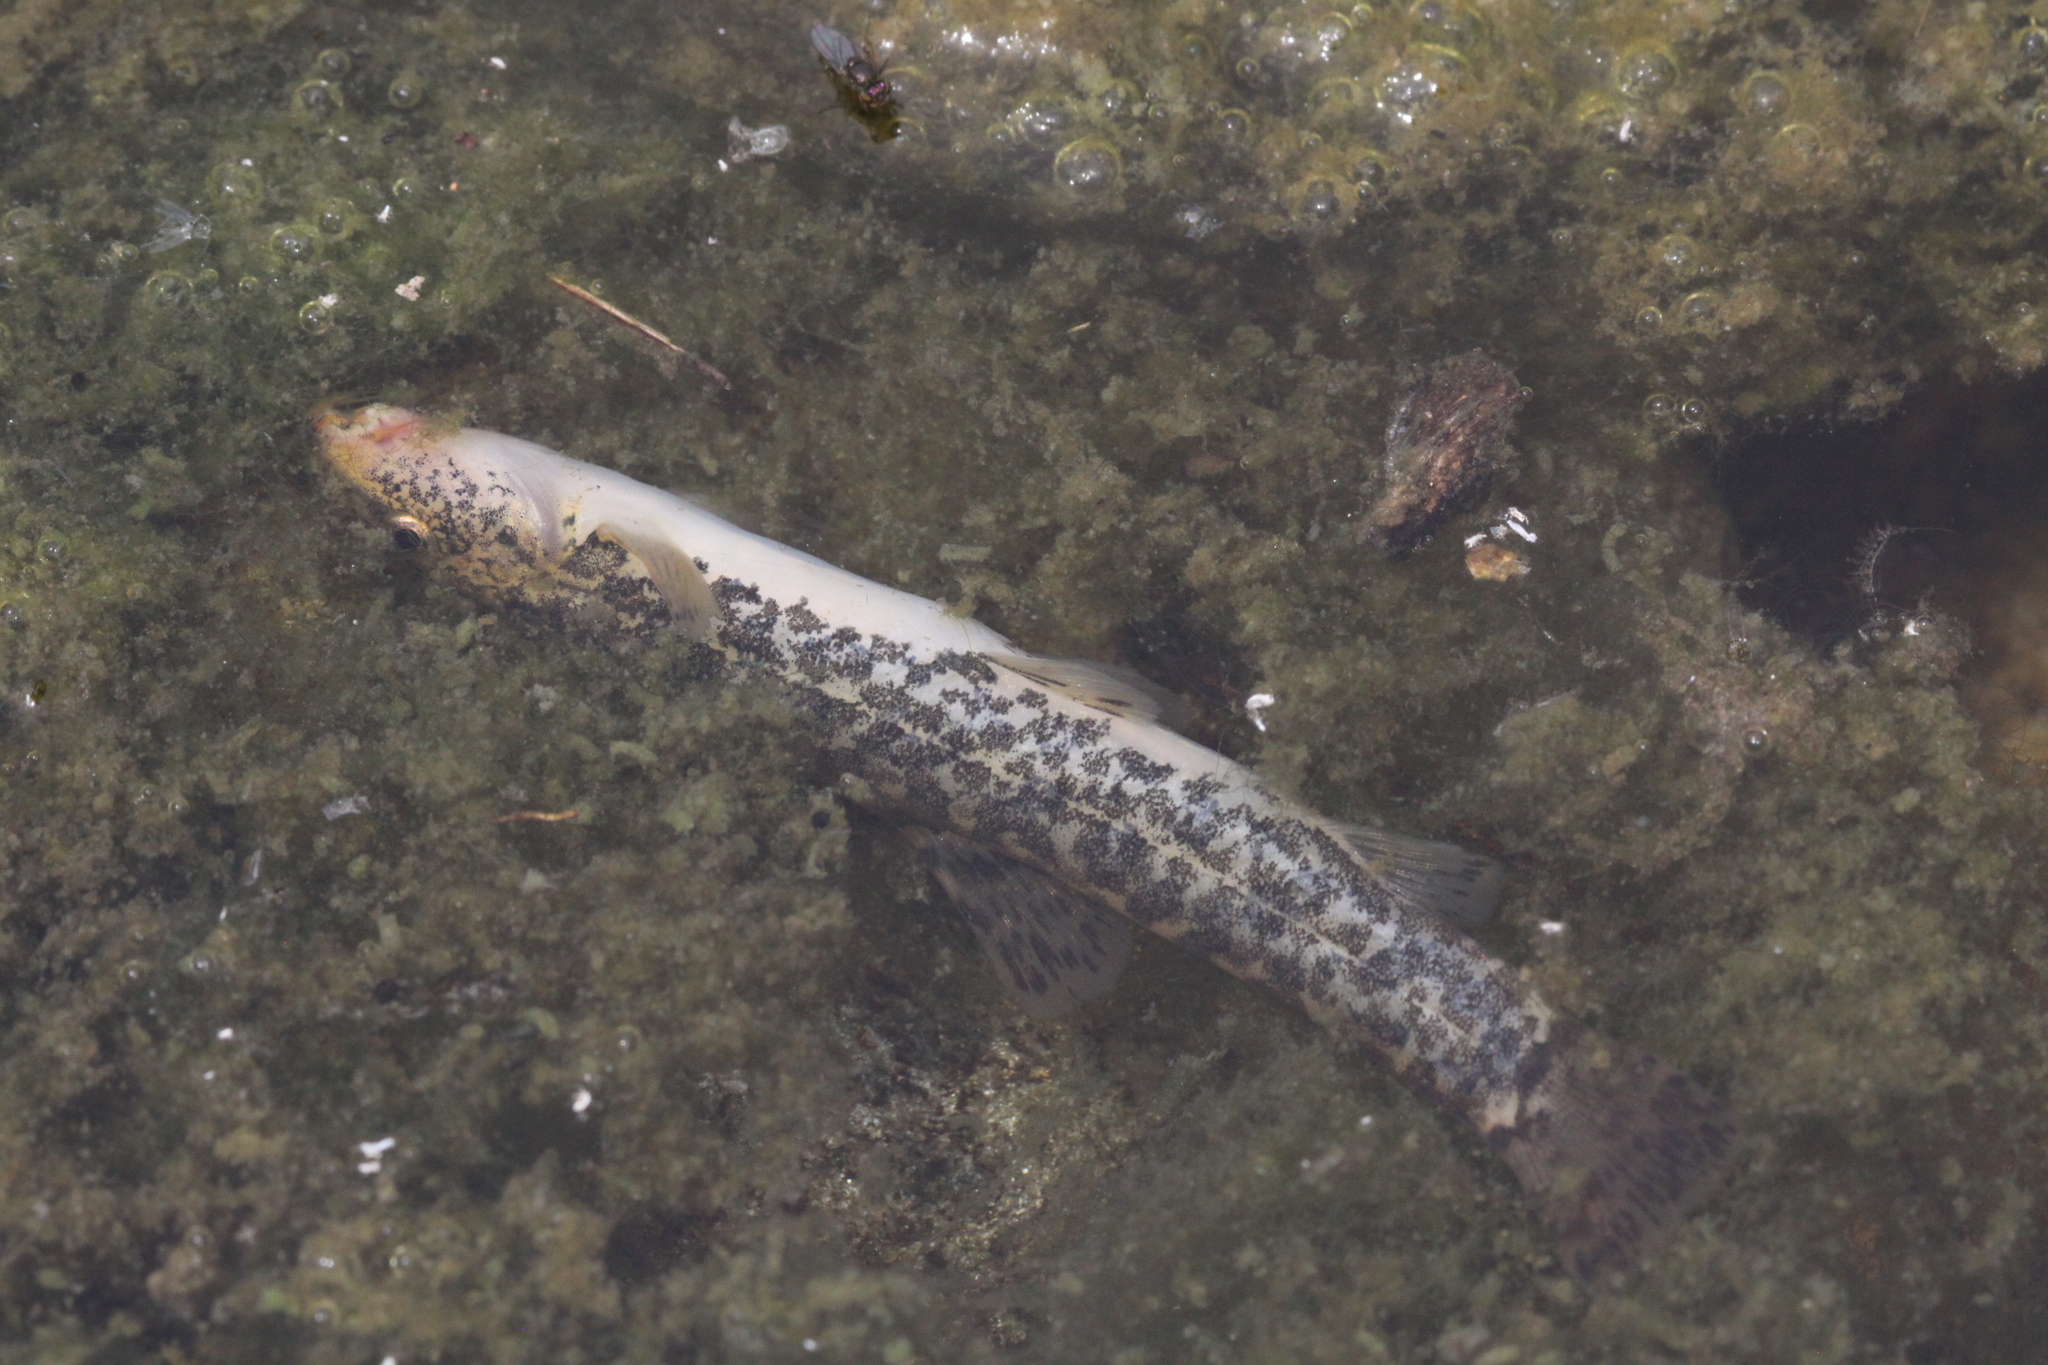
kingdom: Animalia
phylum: Chordata
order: Cypriniformes
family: Nemacheilidae
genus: Barbatula
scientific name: Barbatula barbatula
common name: Stone loach
